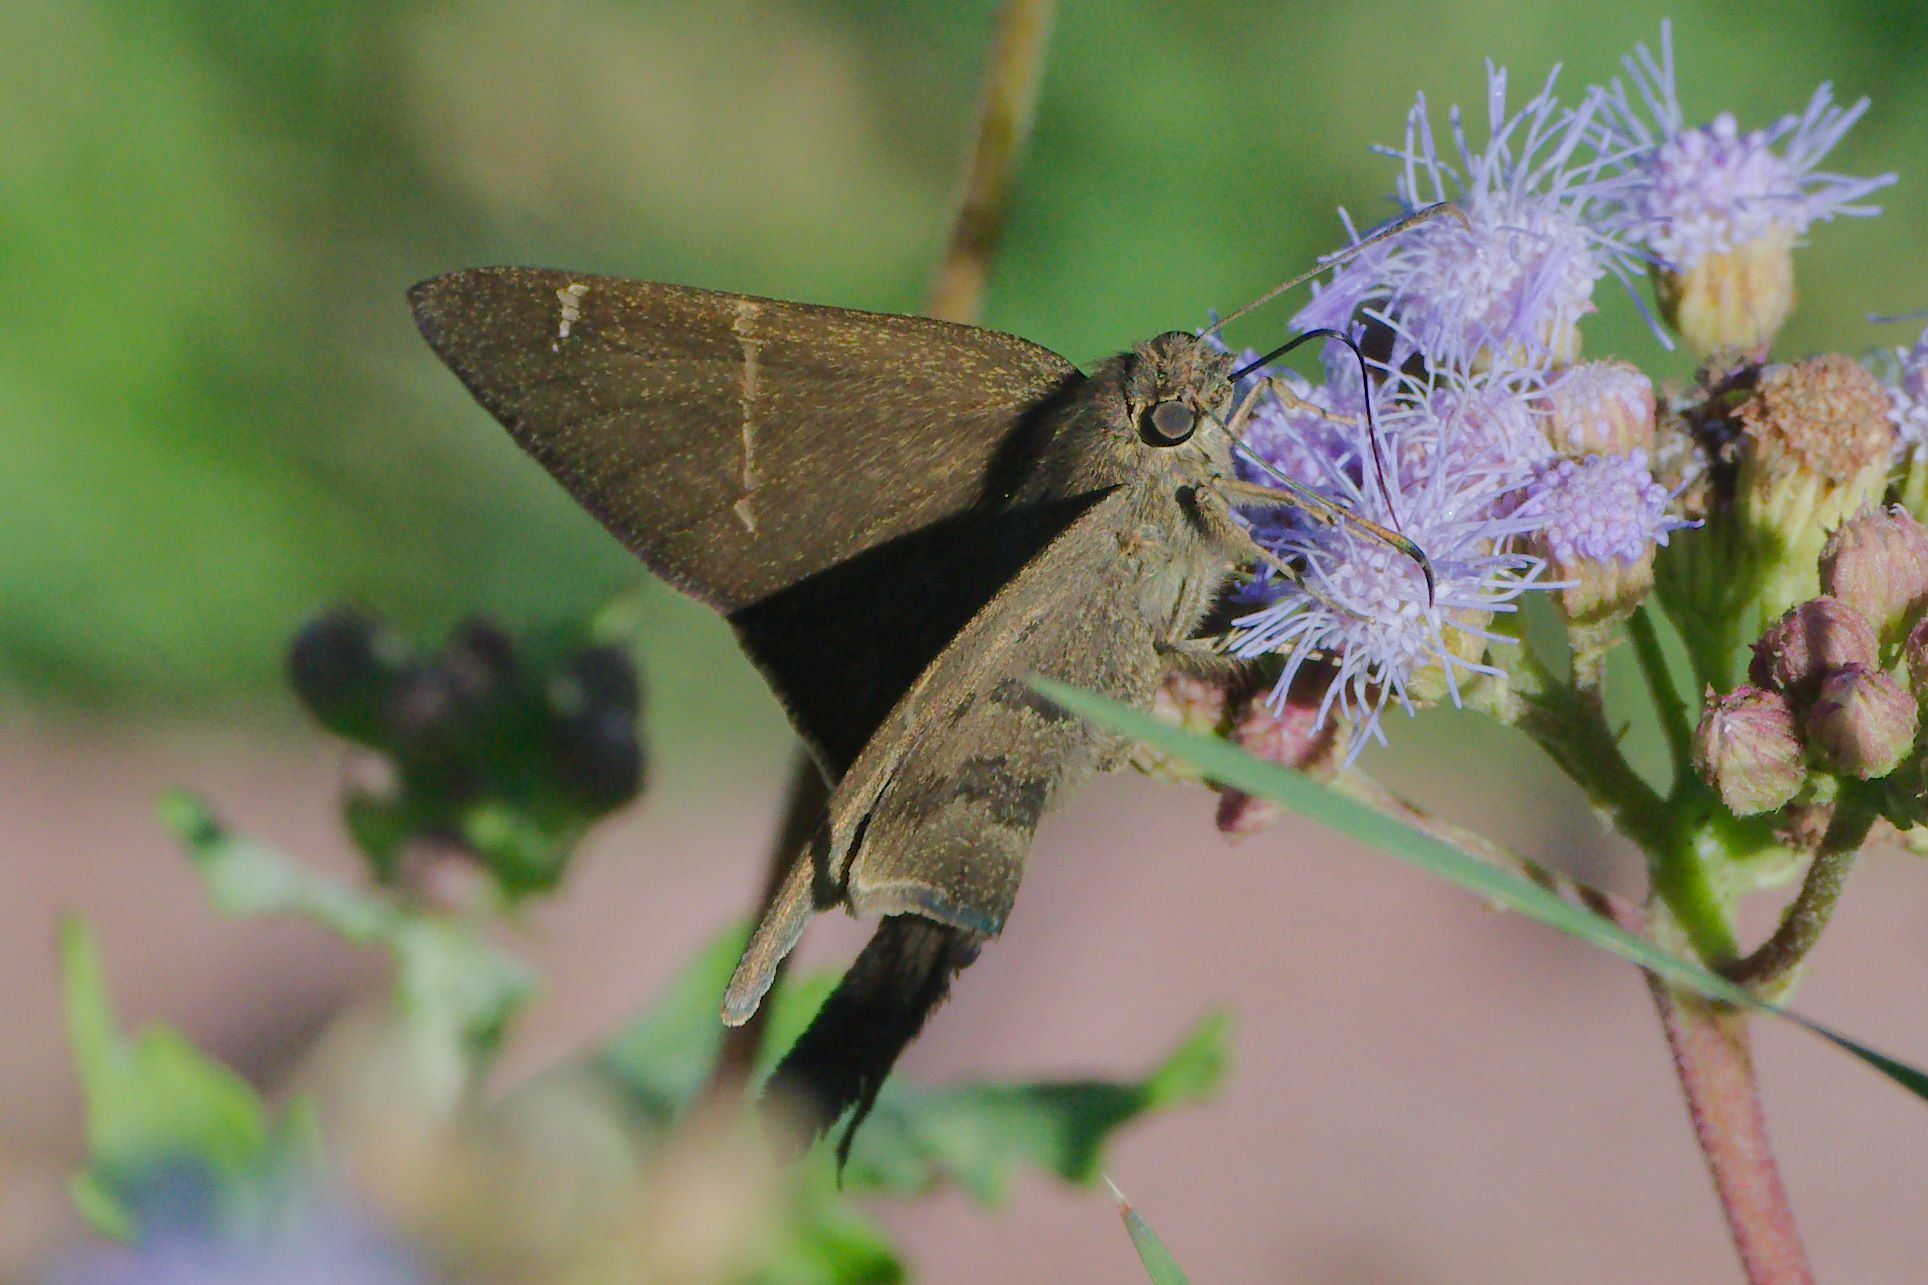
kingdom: Animalia
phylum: Arthropoda
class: Insecta
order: Lepidoptera
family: Hesperiidae
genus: Urbanus
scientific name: Urbanus procne
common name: Brown longtail
